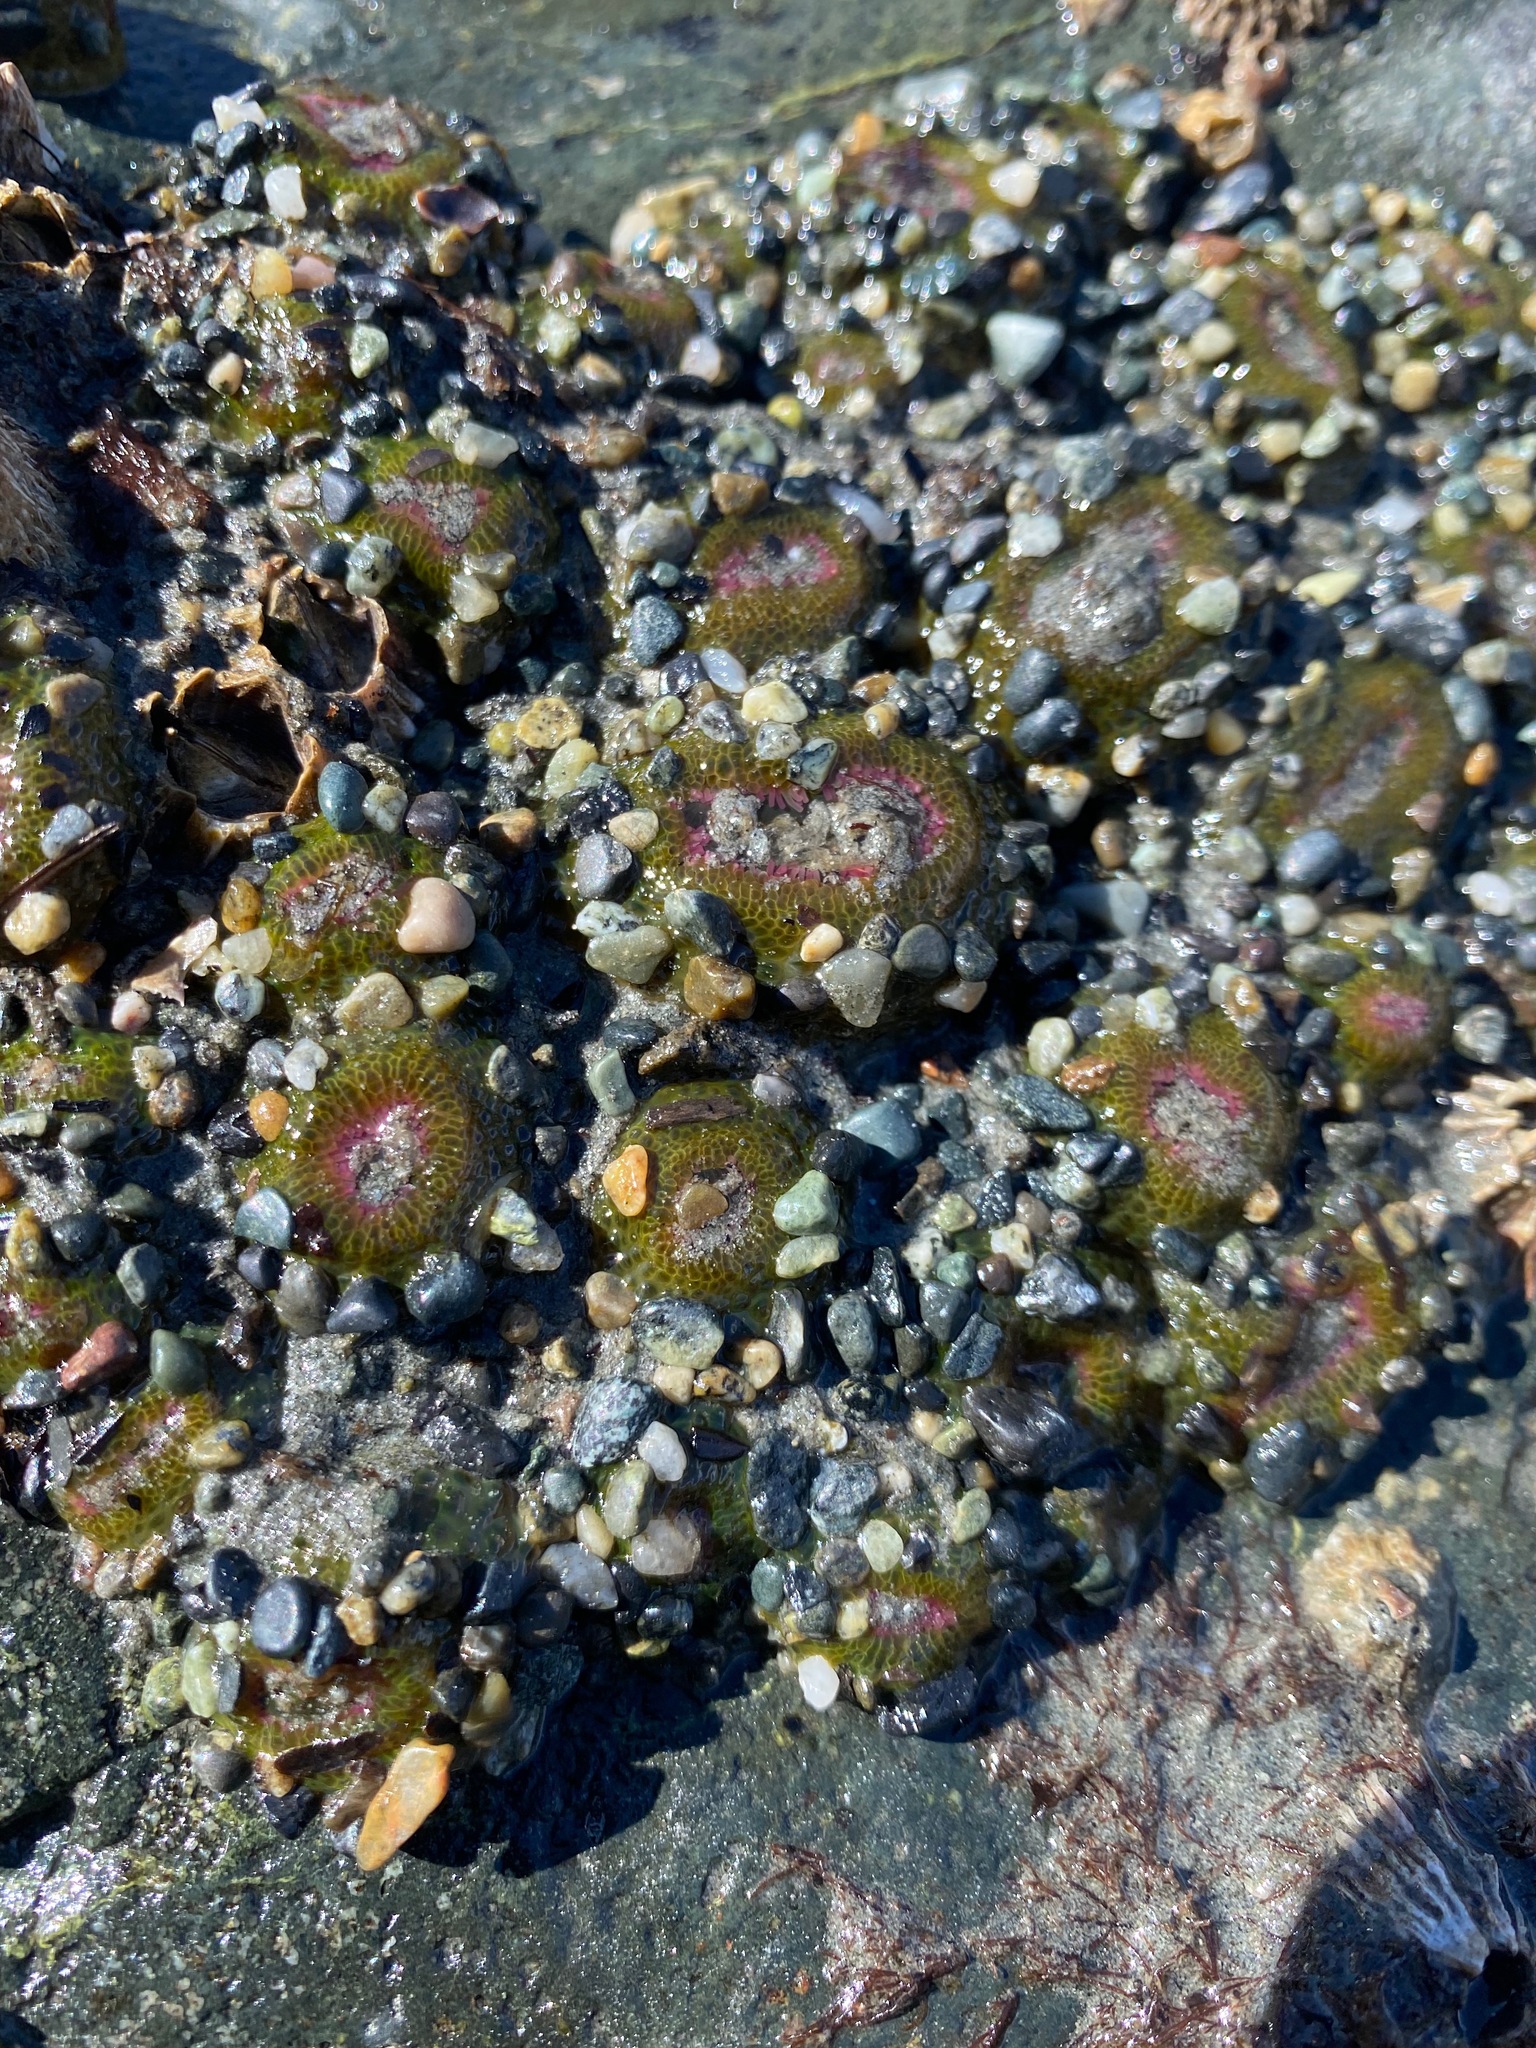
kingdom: Animalia
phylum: Cnidaria
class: Anthozoa
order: Actiniaria
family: Actiniidae
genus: Anthopleura
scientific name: Anthopleura elegantissima
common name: Clonal anemone
